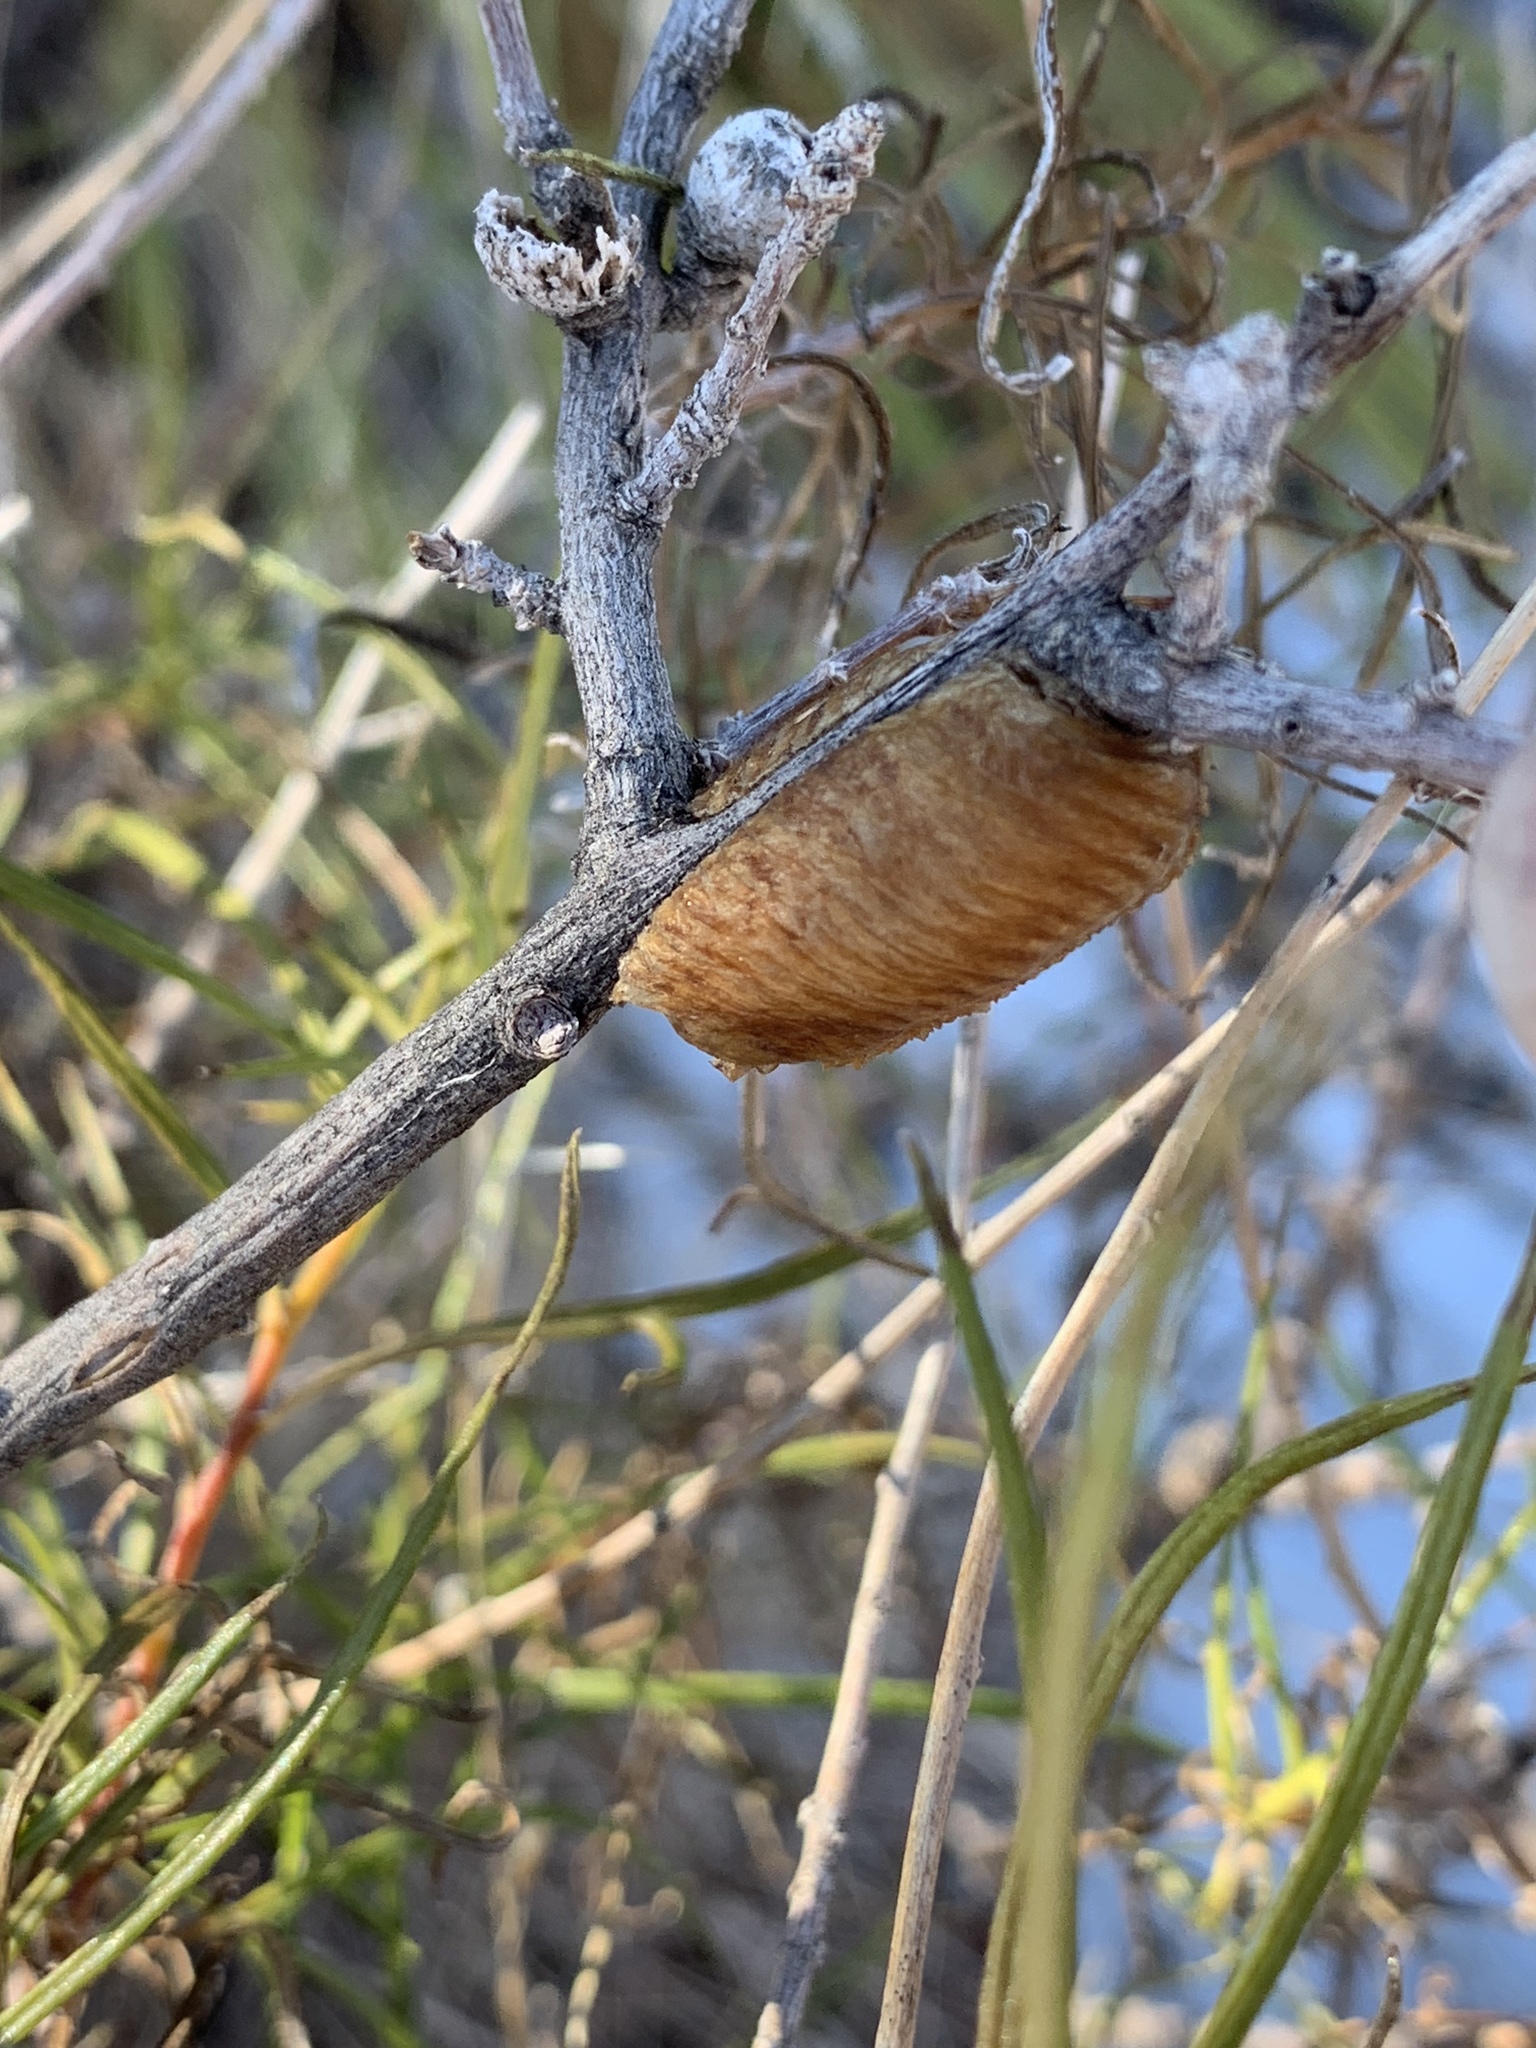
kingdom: Animalia
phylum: Arthropoda
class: Insecta
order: Mantodea
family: Mantidae
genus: Stagmomantis
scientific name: Stagmomantis limbata
